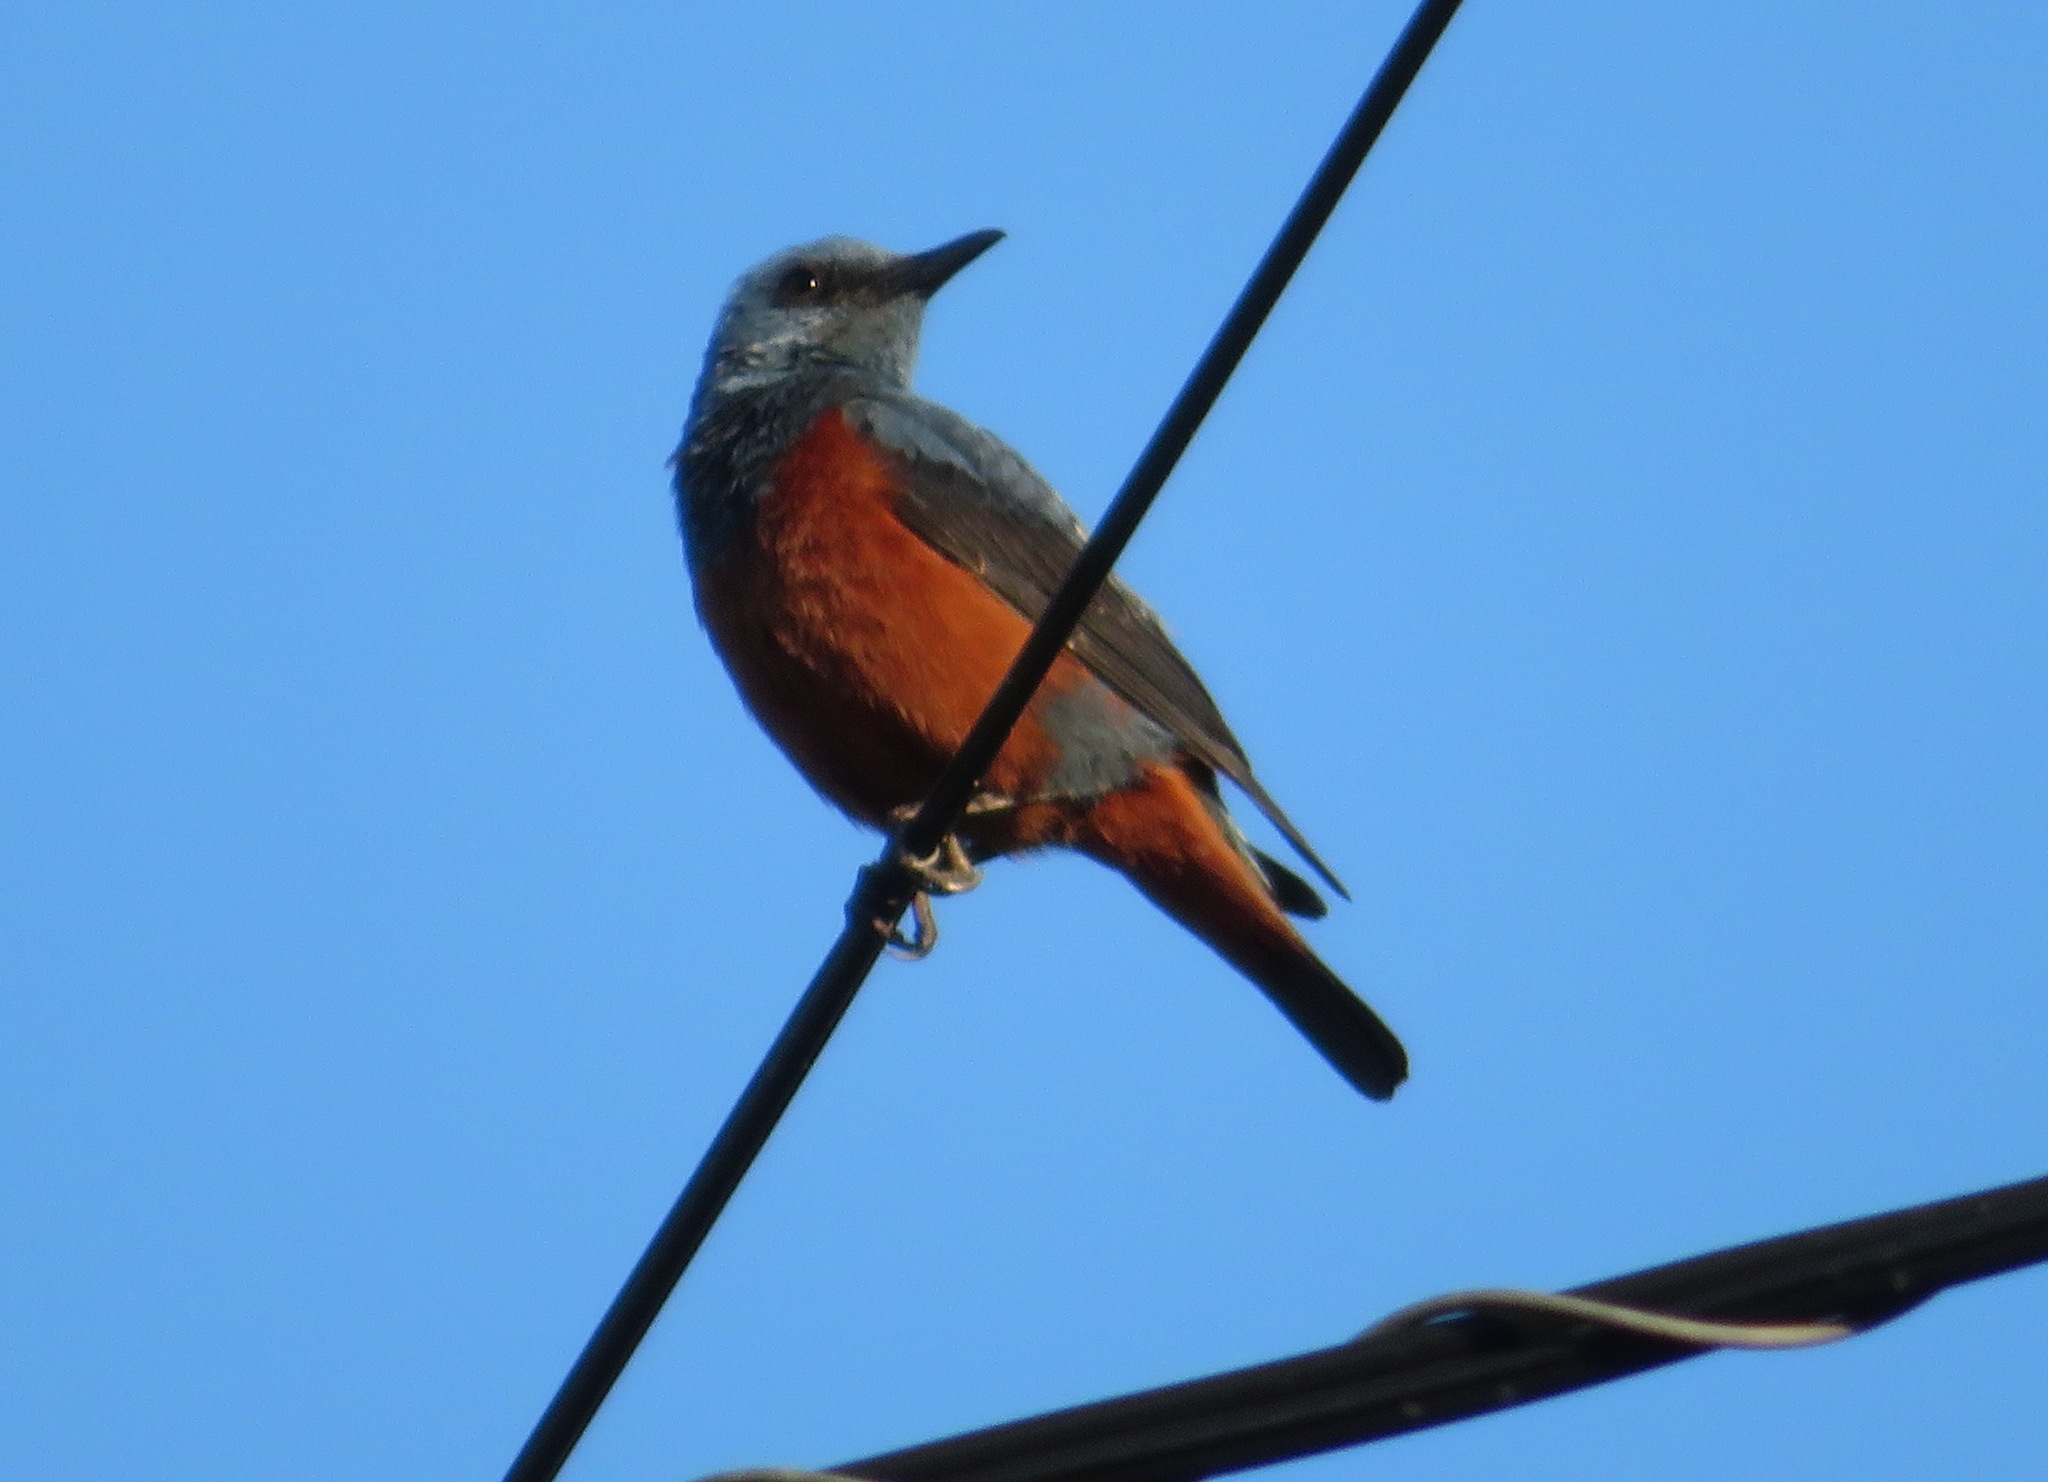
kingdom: Animalia
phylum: Chordata
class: Aves
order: Passeriformes
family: Muscicapidae
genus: Monticola
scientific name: Monticola solitarius
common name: Blue rock thrush
